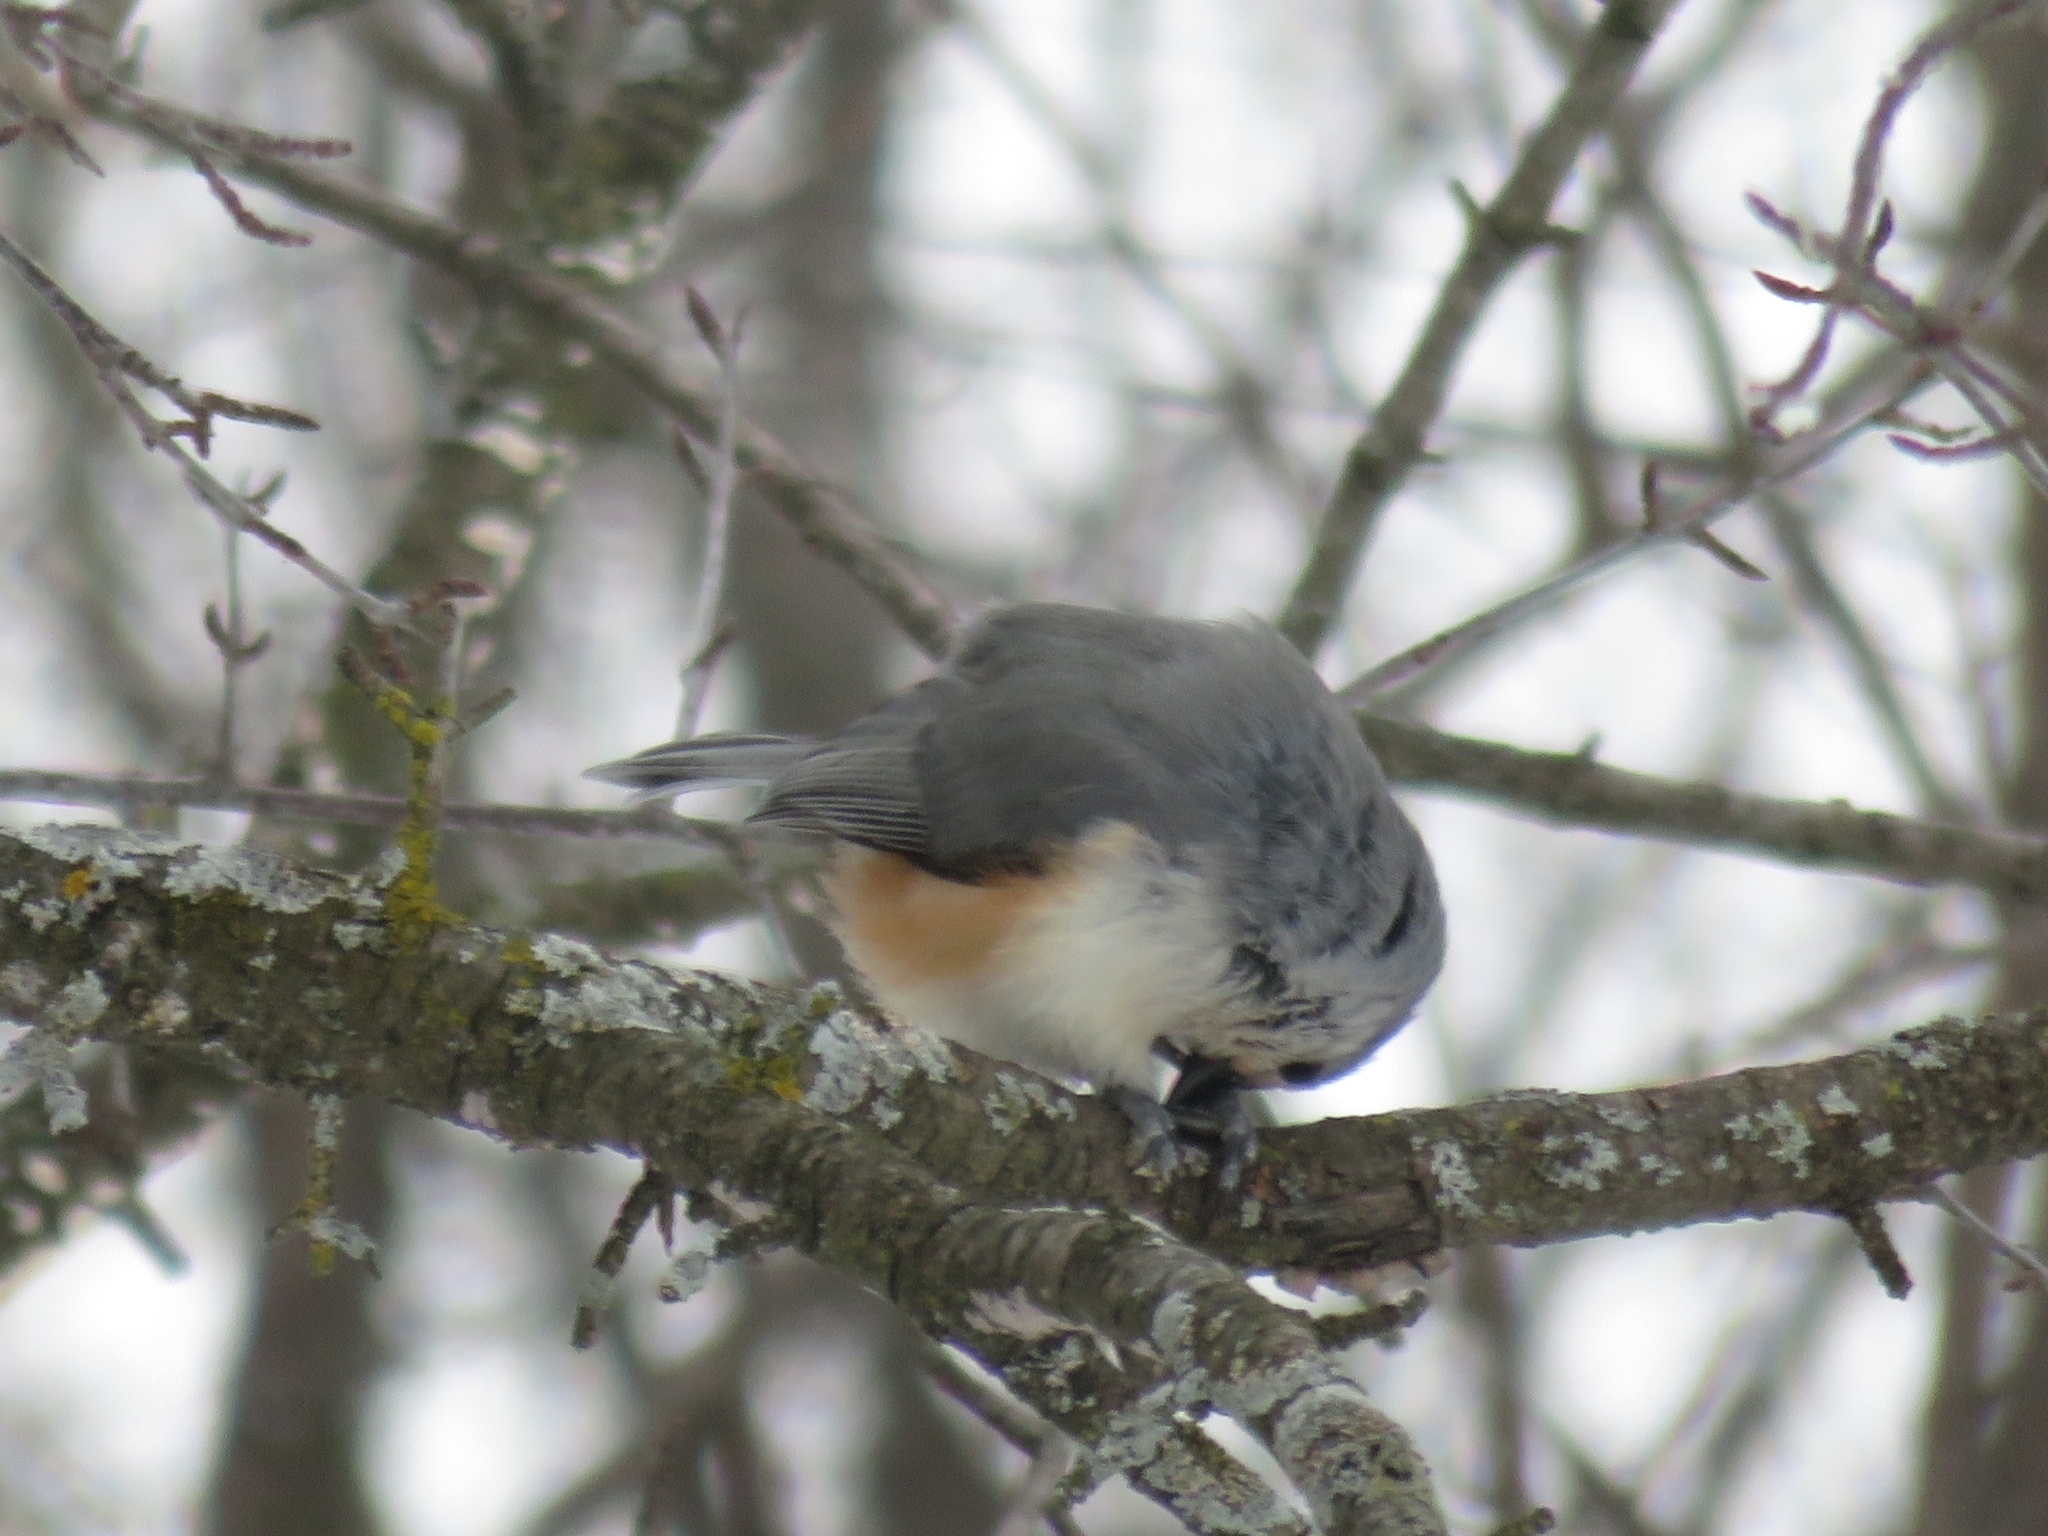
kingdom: Animalia
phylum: Chordata
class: Aves
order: Passeriformes
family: Paridae
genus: Baeolophus
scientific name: Baeolophus bicolor
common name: Tufted titmouse
